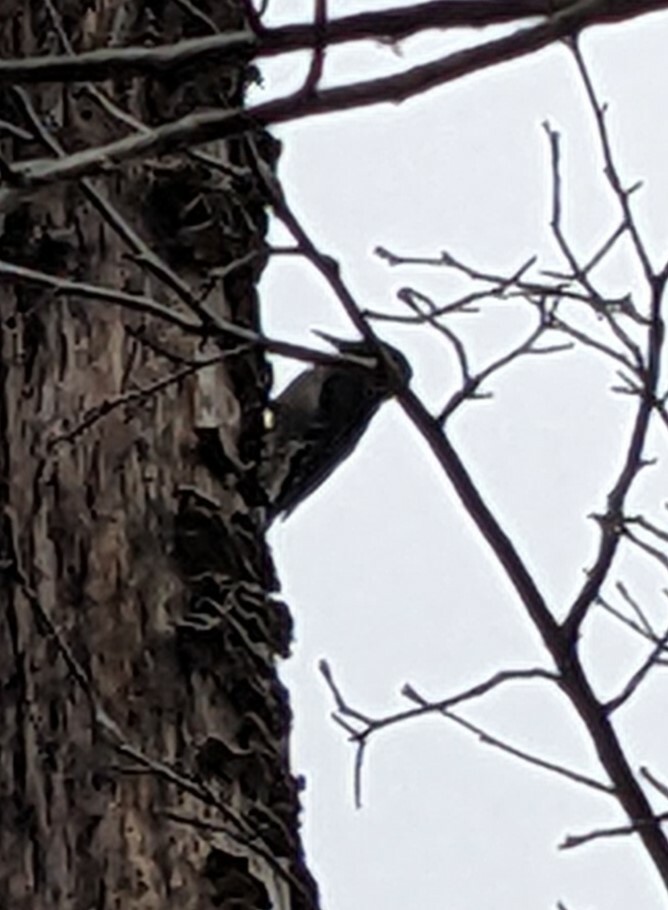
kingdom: Animalia
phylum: Chordata
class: Aves
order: Piciformes
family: Picidae
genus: Leuconotopicus
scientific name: Leuconotopicus villosus
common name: Hairy woodpecker
